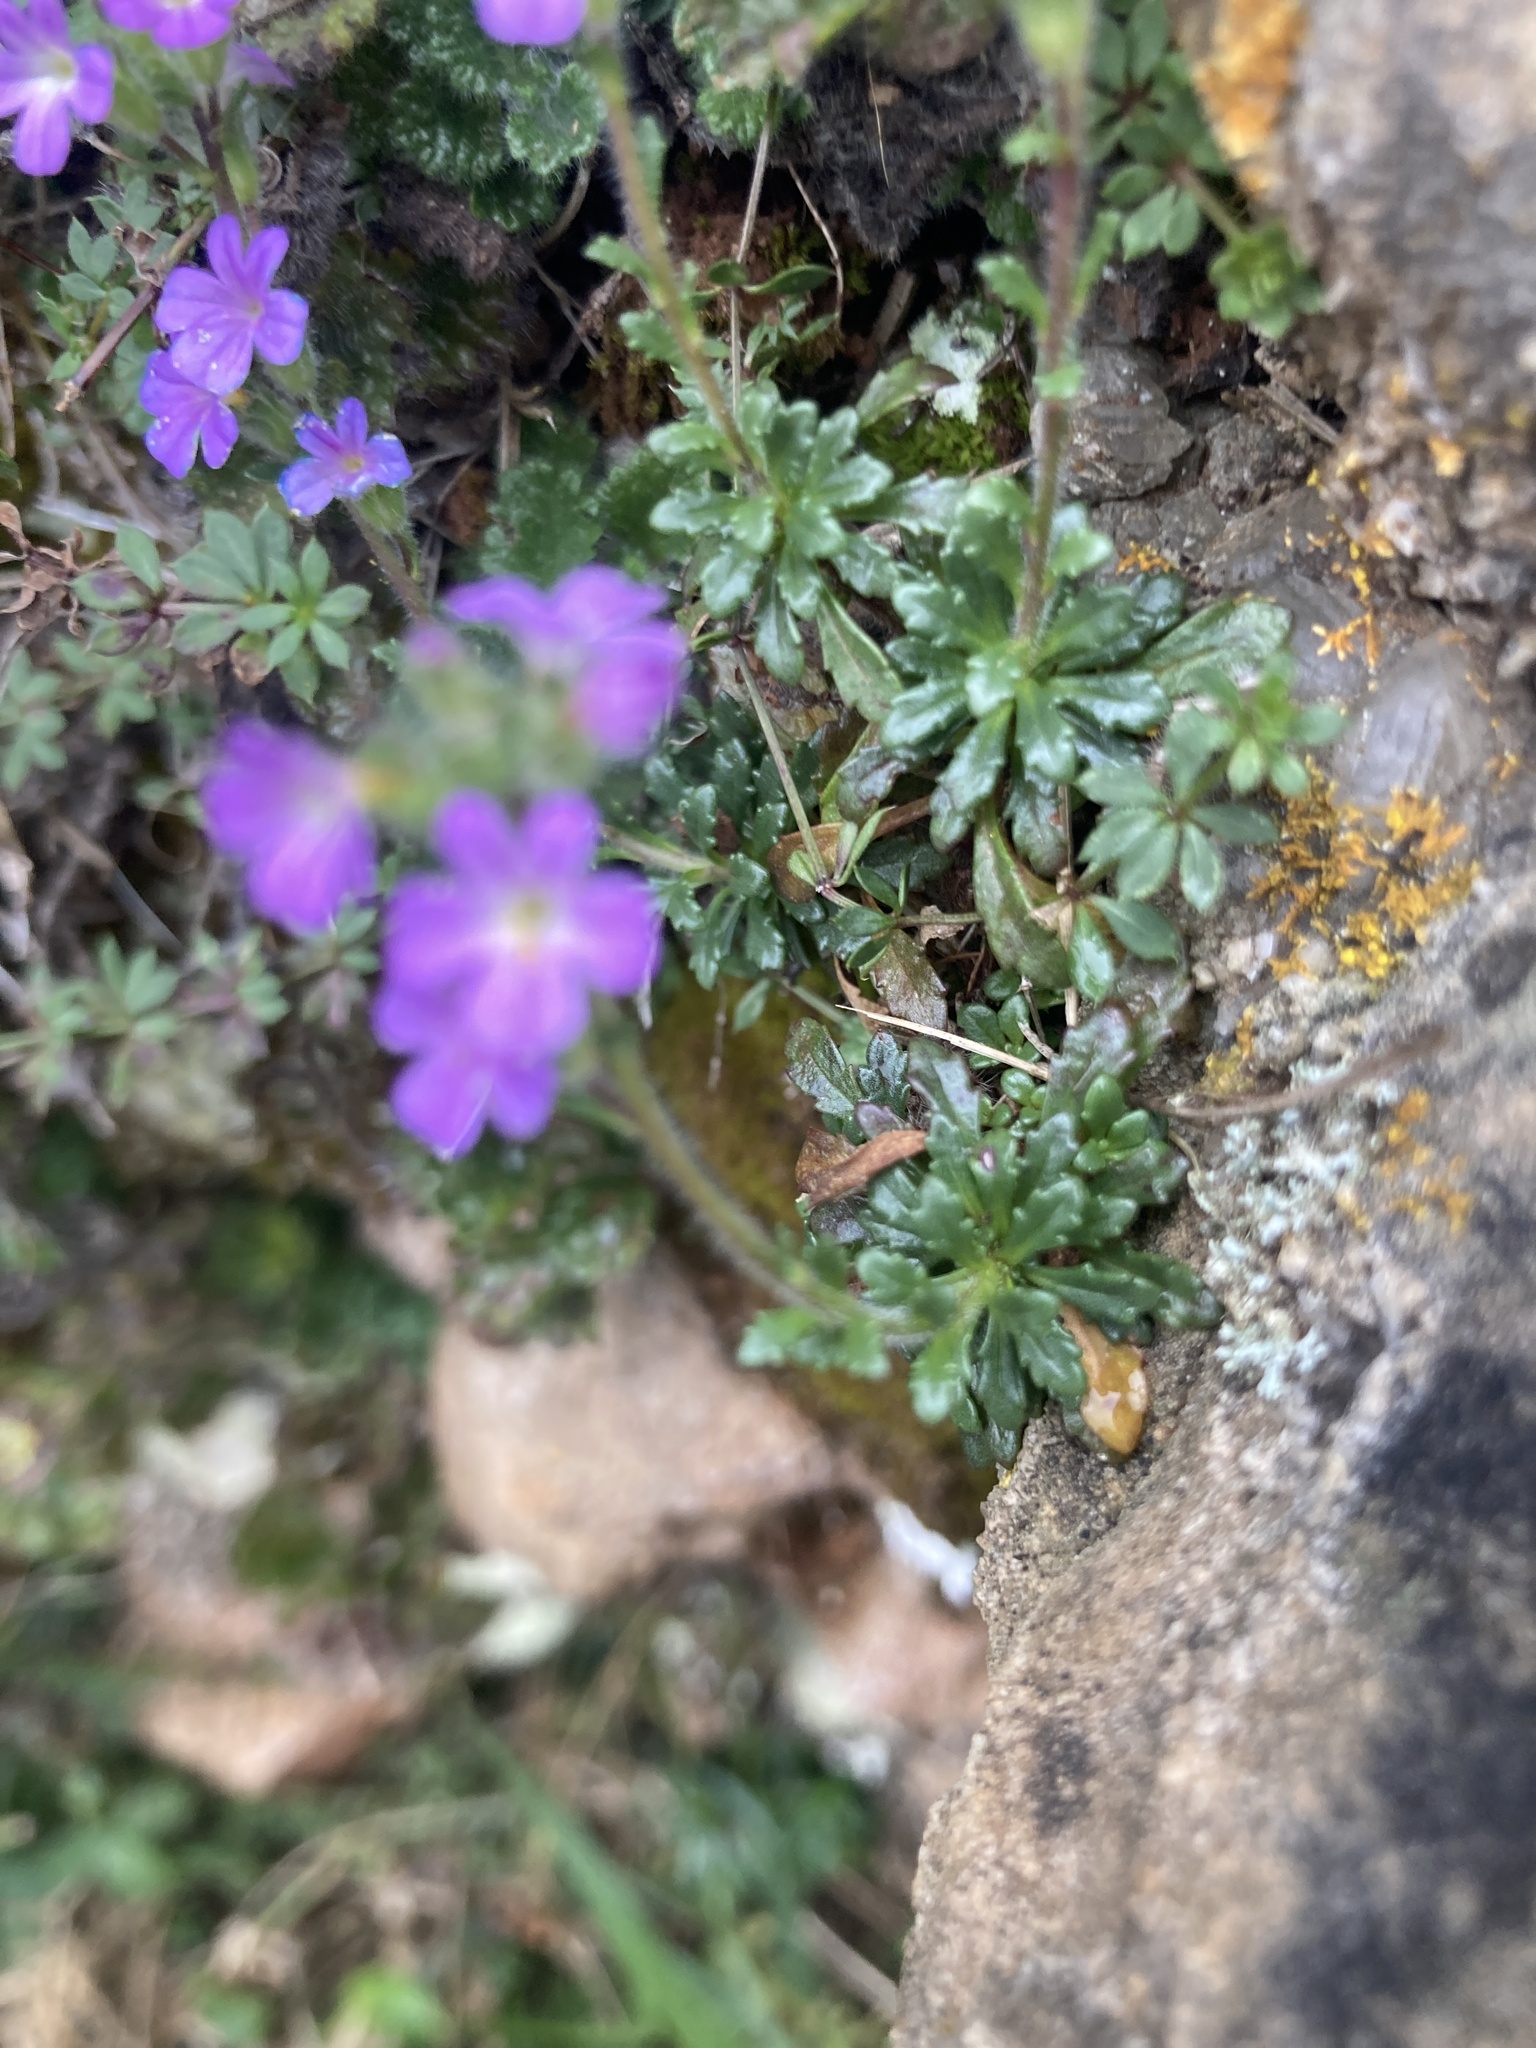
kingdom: Plantae
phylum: Tracheophyta
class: Magnoliopsida
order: Lamiales
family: Plantaginaceae
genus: Erinus
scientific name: Erinus alpinus
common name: Fairy foxglove
